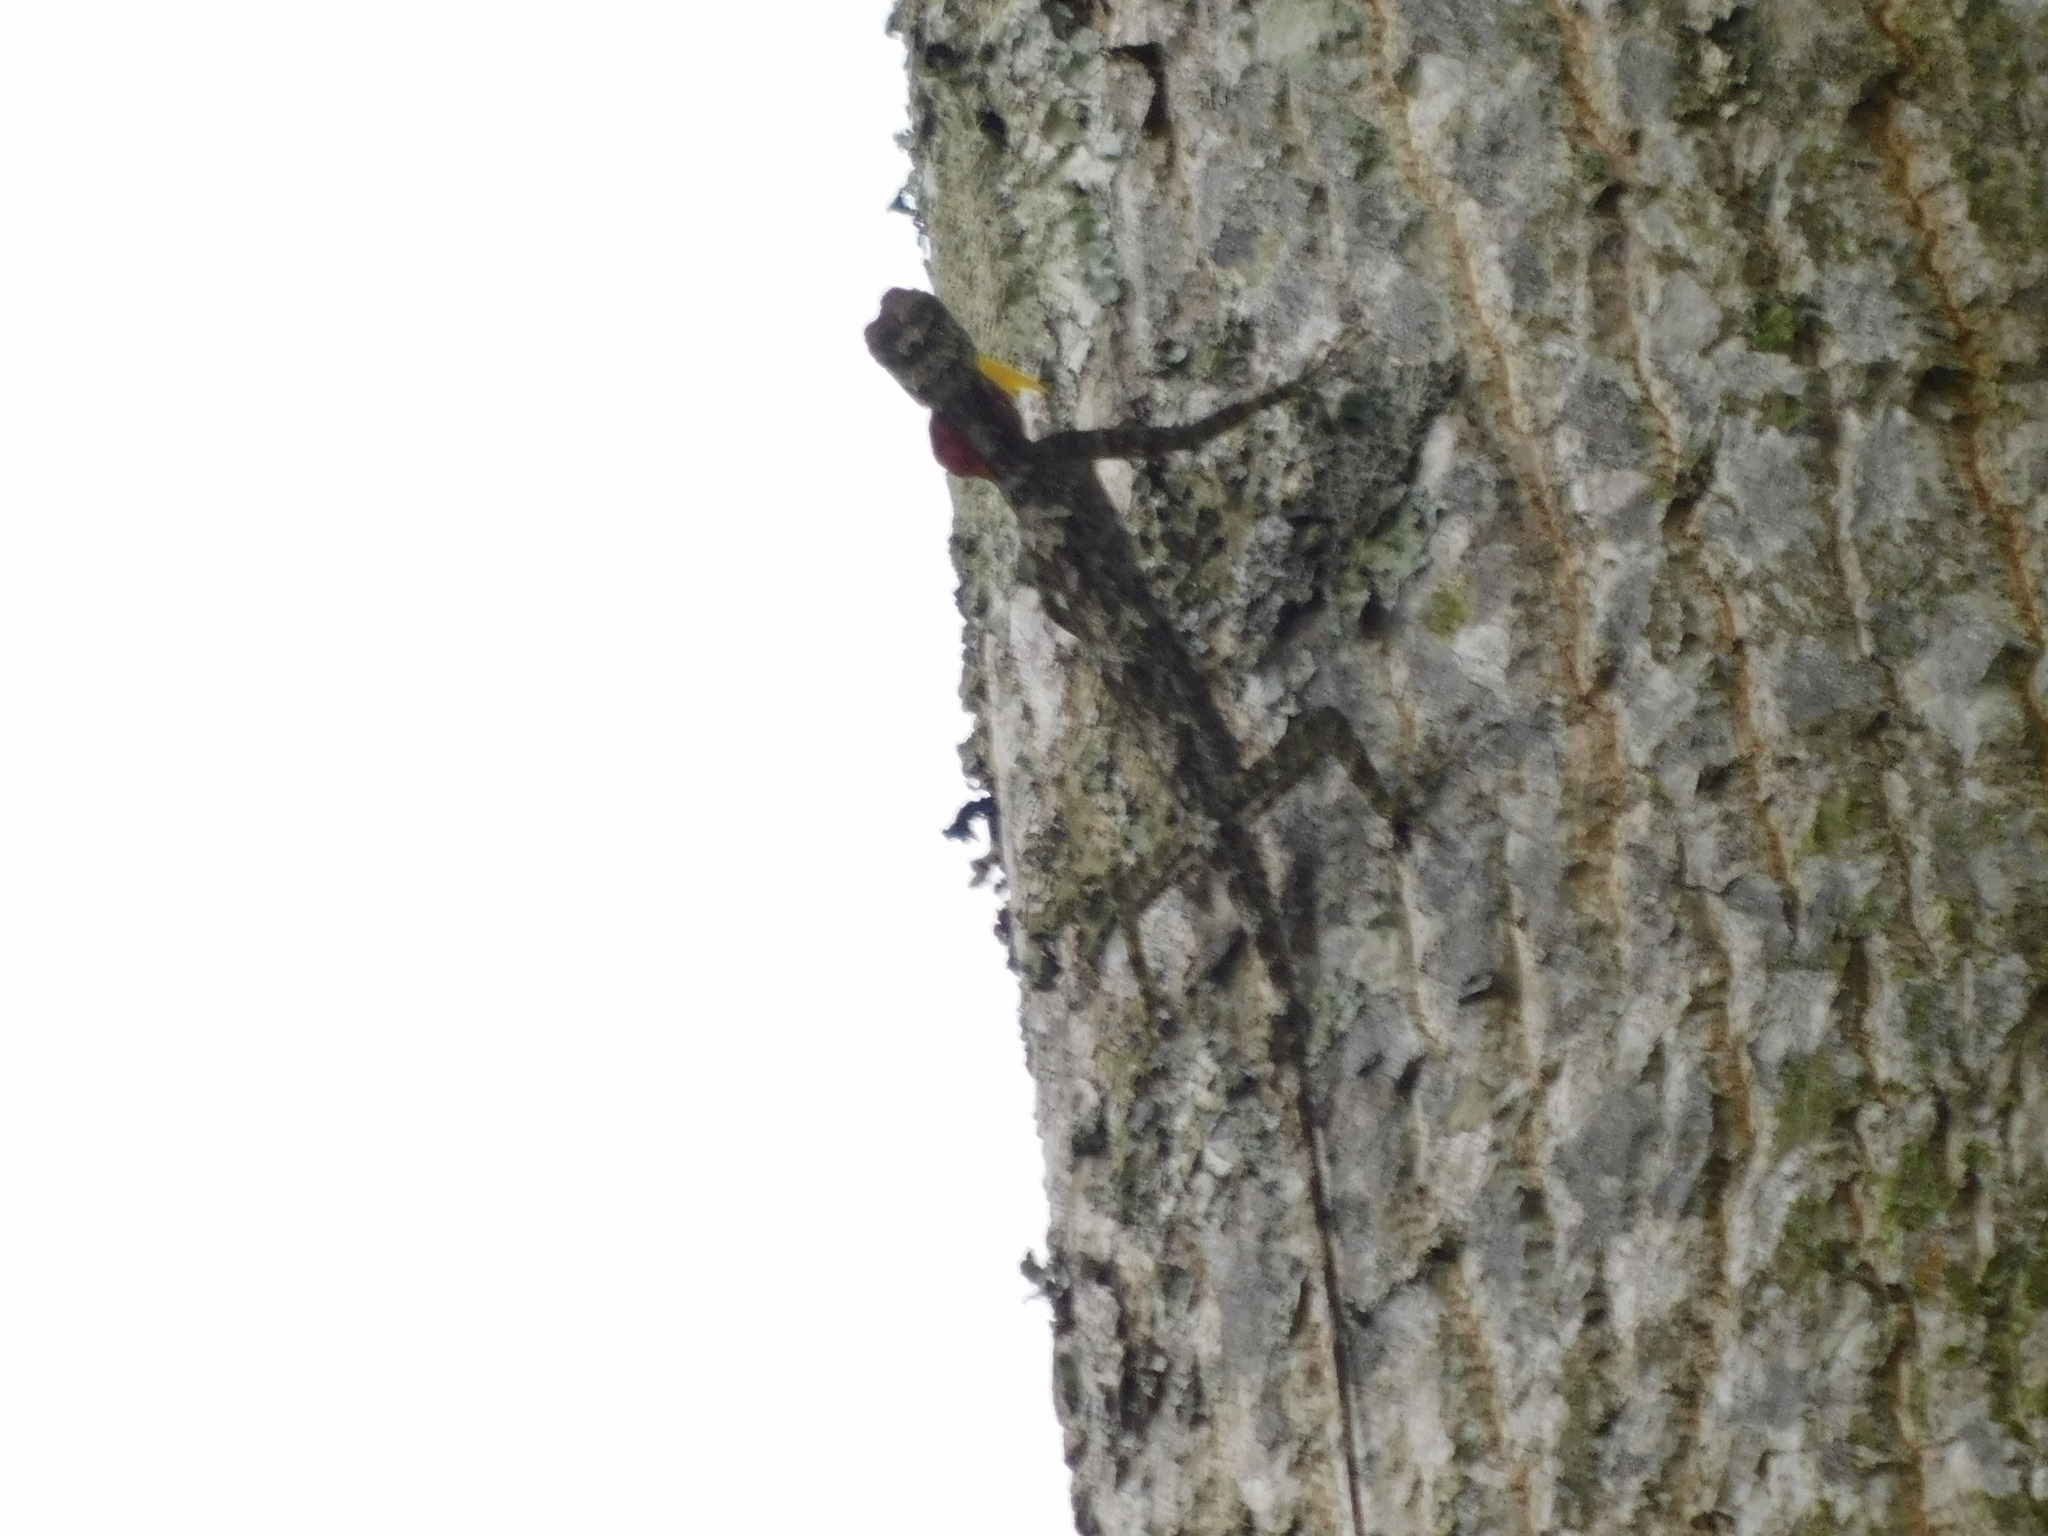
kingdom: Animalia
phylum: Chordata
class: Squamata
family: Agamidae
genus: Draco
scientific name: Draco haematopogon
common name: Red-barbed flying dragon
